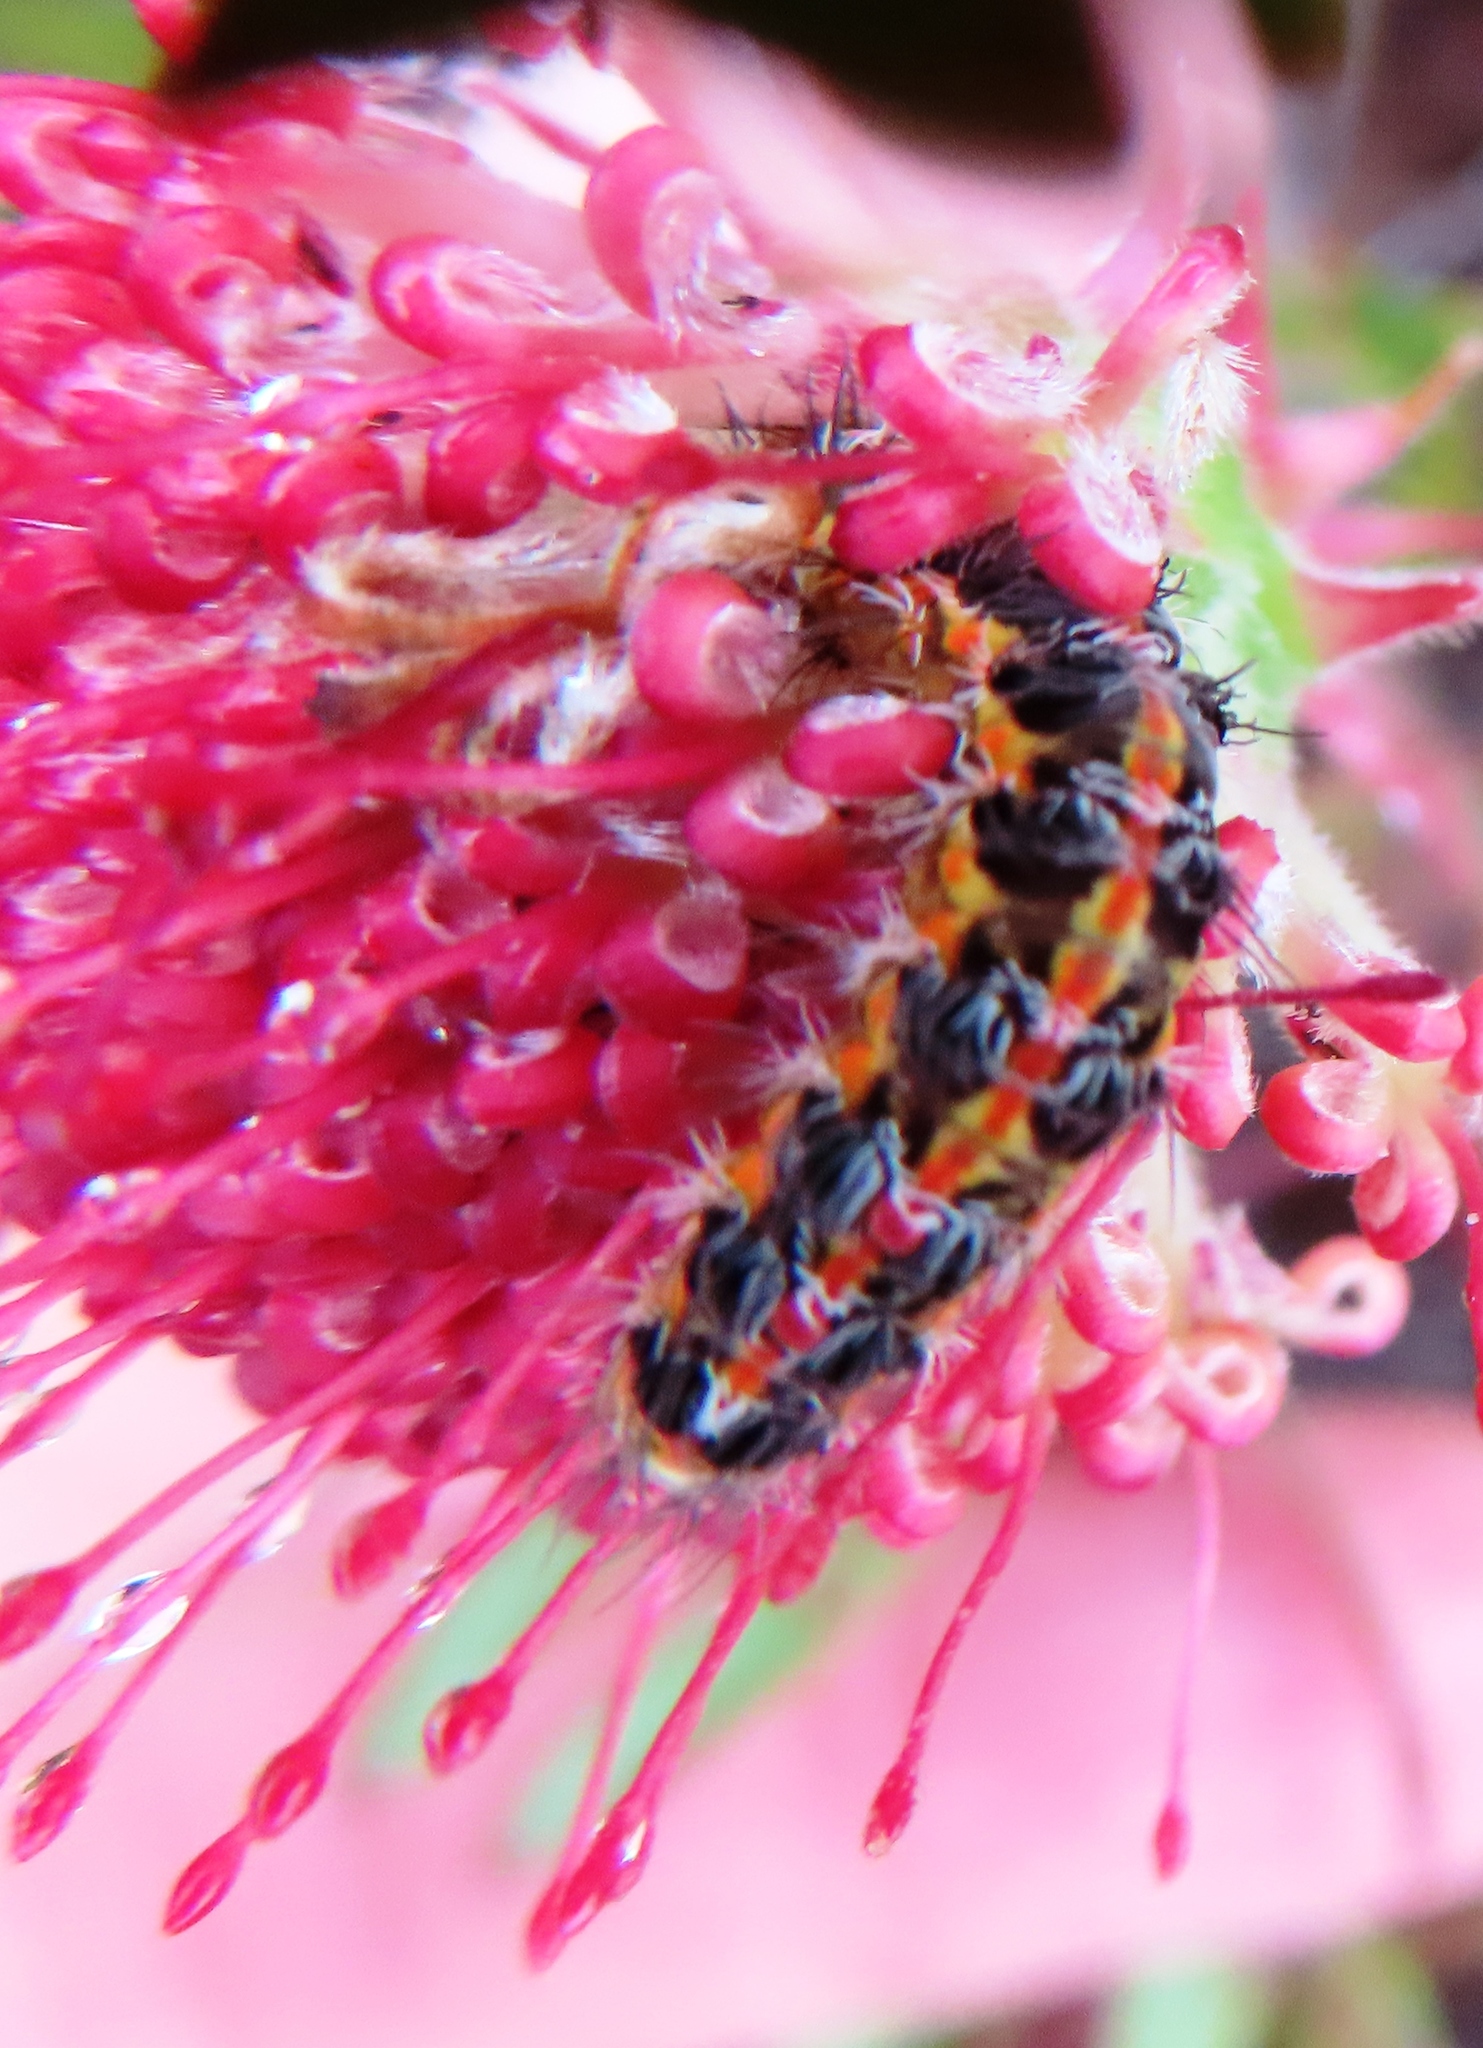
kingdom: Animalia
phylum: Arthropoda
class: Insecta
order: Lepidoptera
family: Erebidae
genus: Lacipa
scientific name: Lacipa picta
